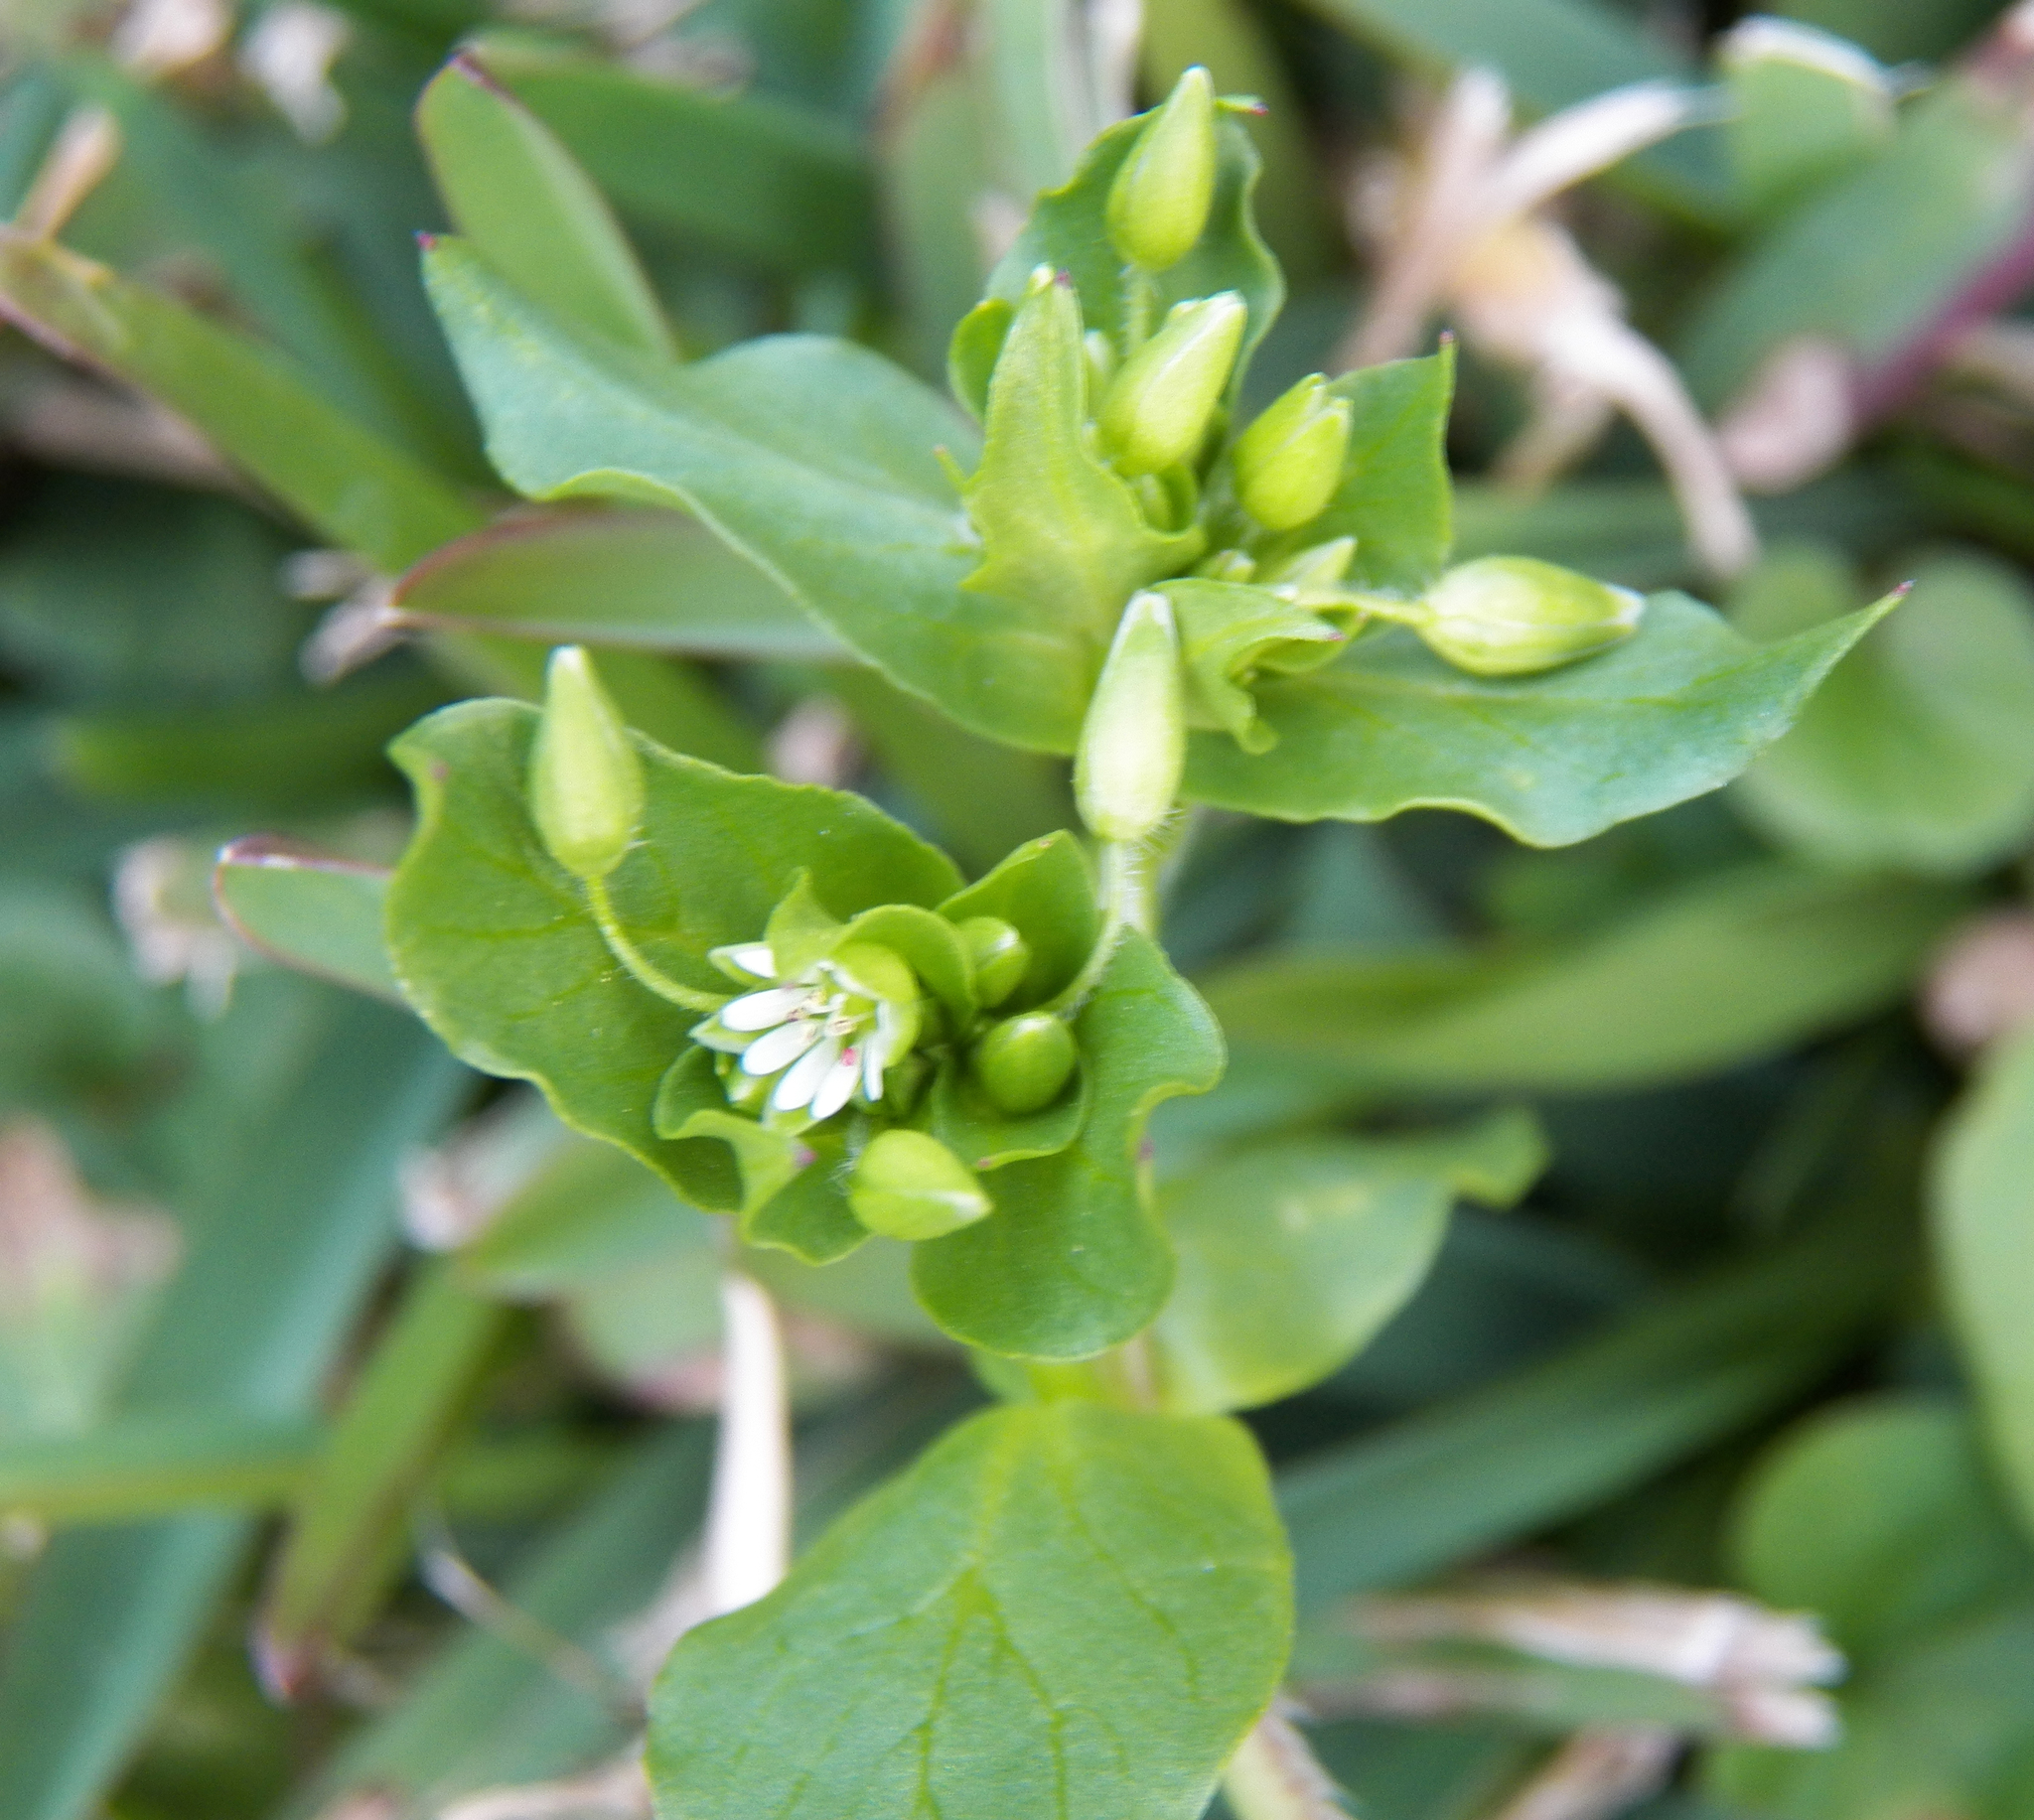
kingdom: Plantae
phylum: Tracheophyta
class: Magnoliopsida
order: Caryophyllales
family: Caryophyllaceae
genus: Stellaria
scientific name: Stellaria media
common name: Common chickweed
